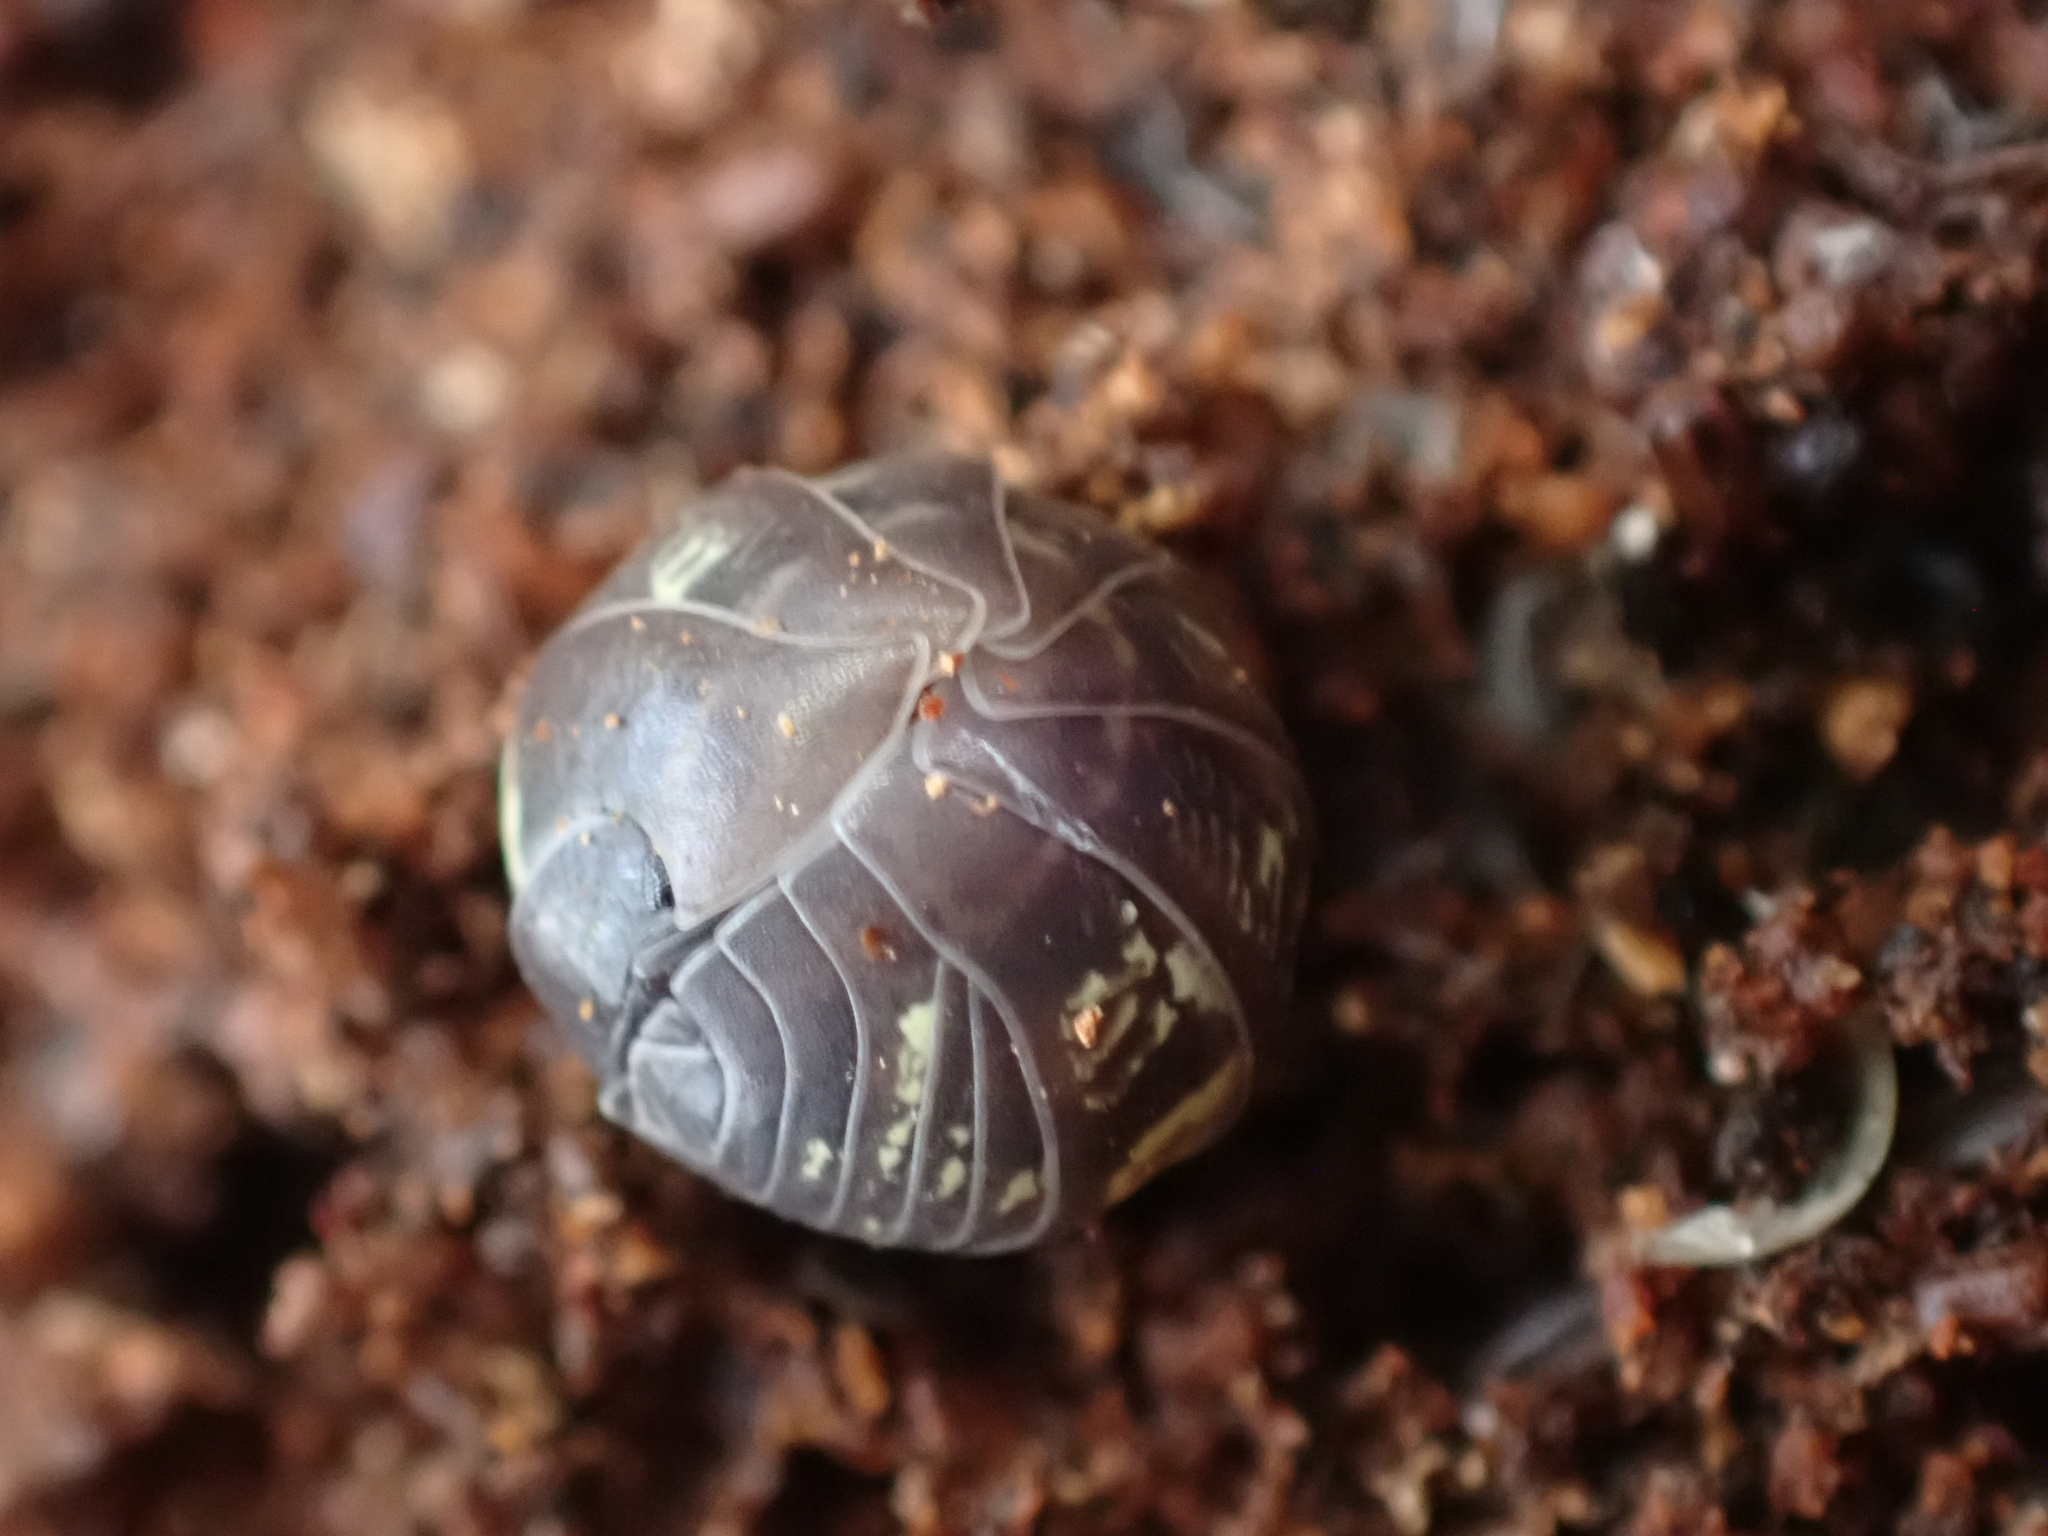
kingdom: Animalia
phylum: Arthropoda
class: Malacostraca
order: Isopoda
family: Armadillidiidae
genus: Armadillidium
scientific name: Armadillidium vulgare
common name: Common pill woodlouse
